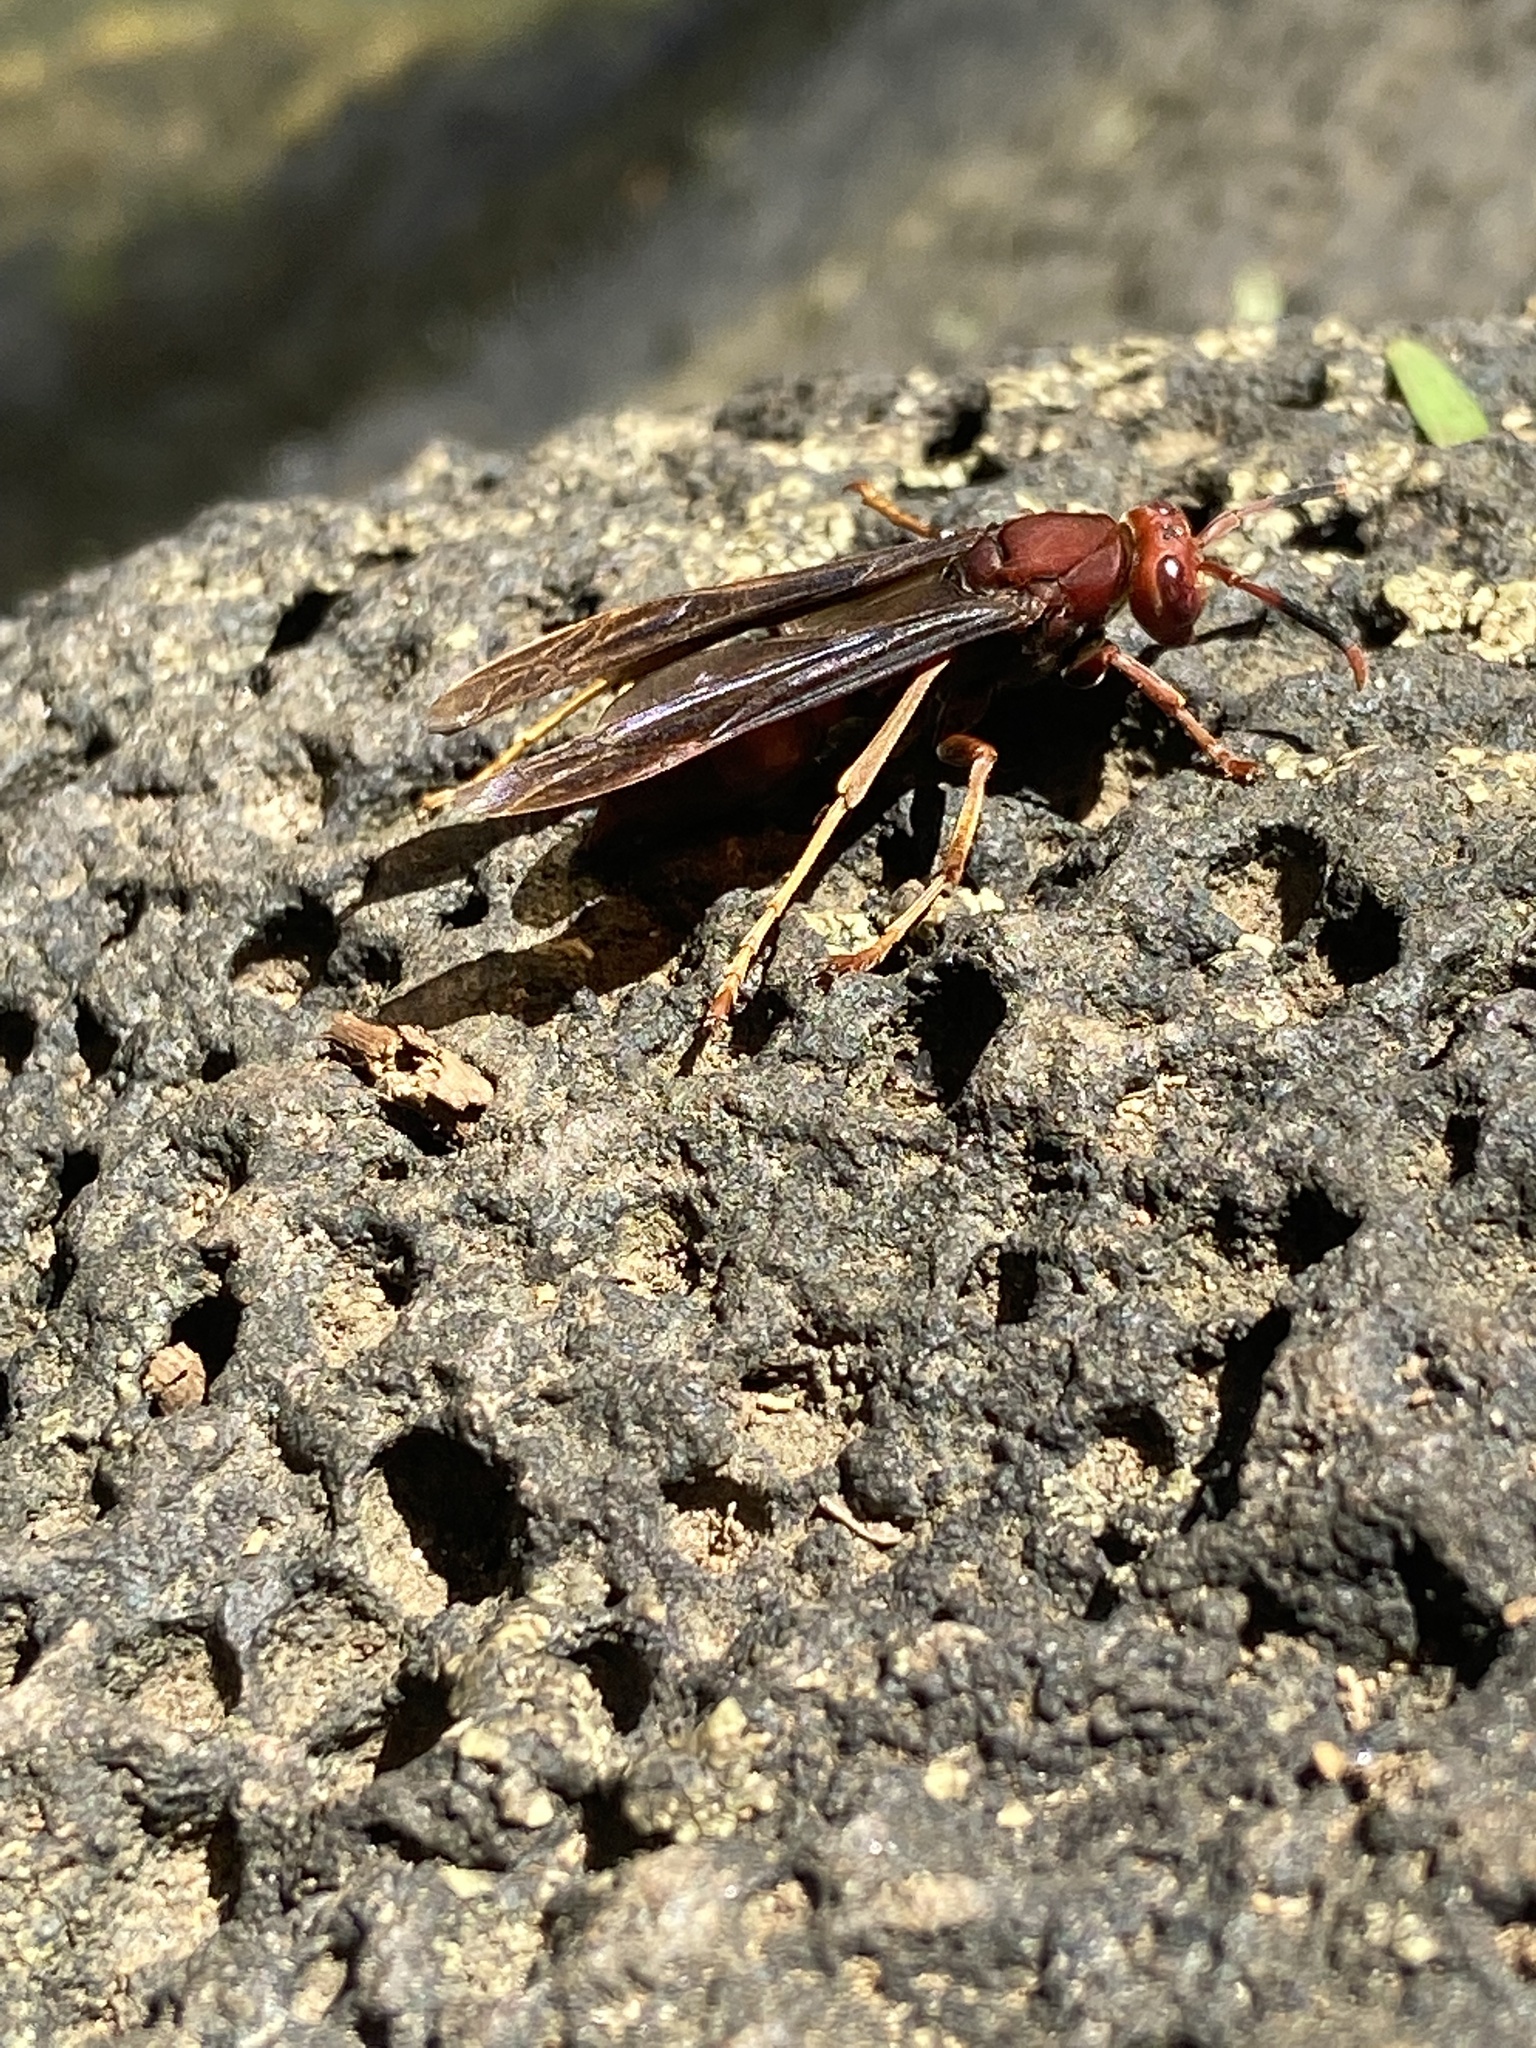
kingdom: Animalia
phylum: Arthropoda
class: Insecta
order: Hymenoptera
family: Eumenidae
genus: Polistes
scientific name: Polistes lanio
